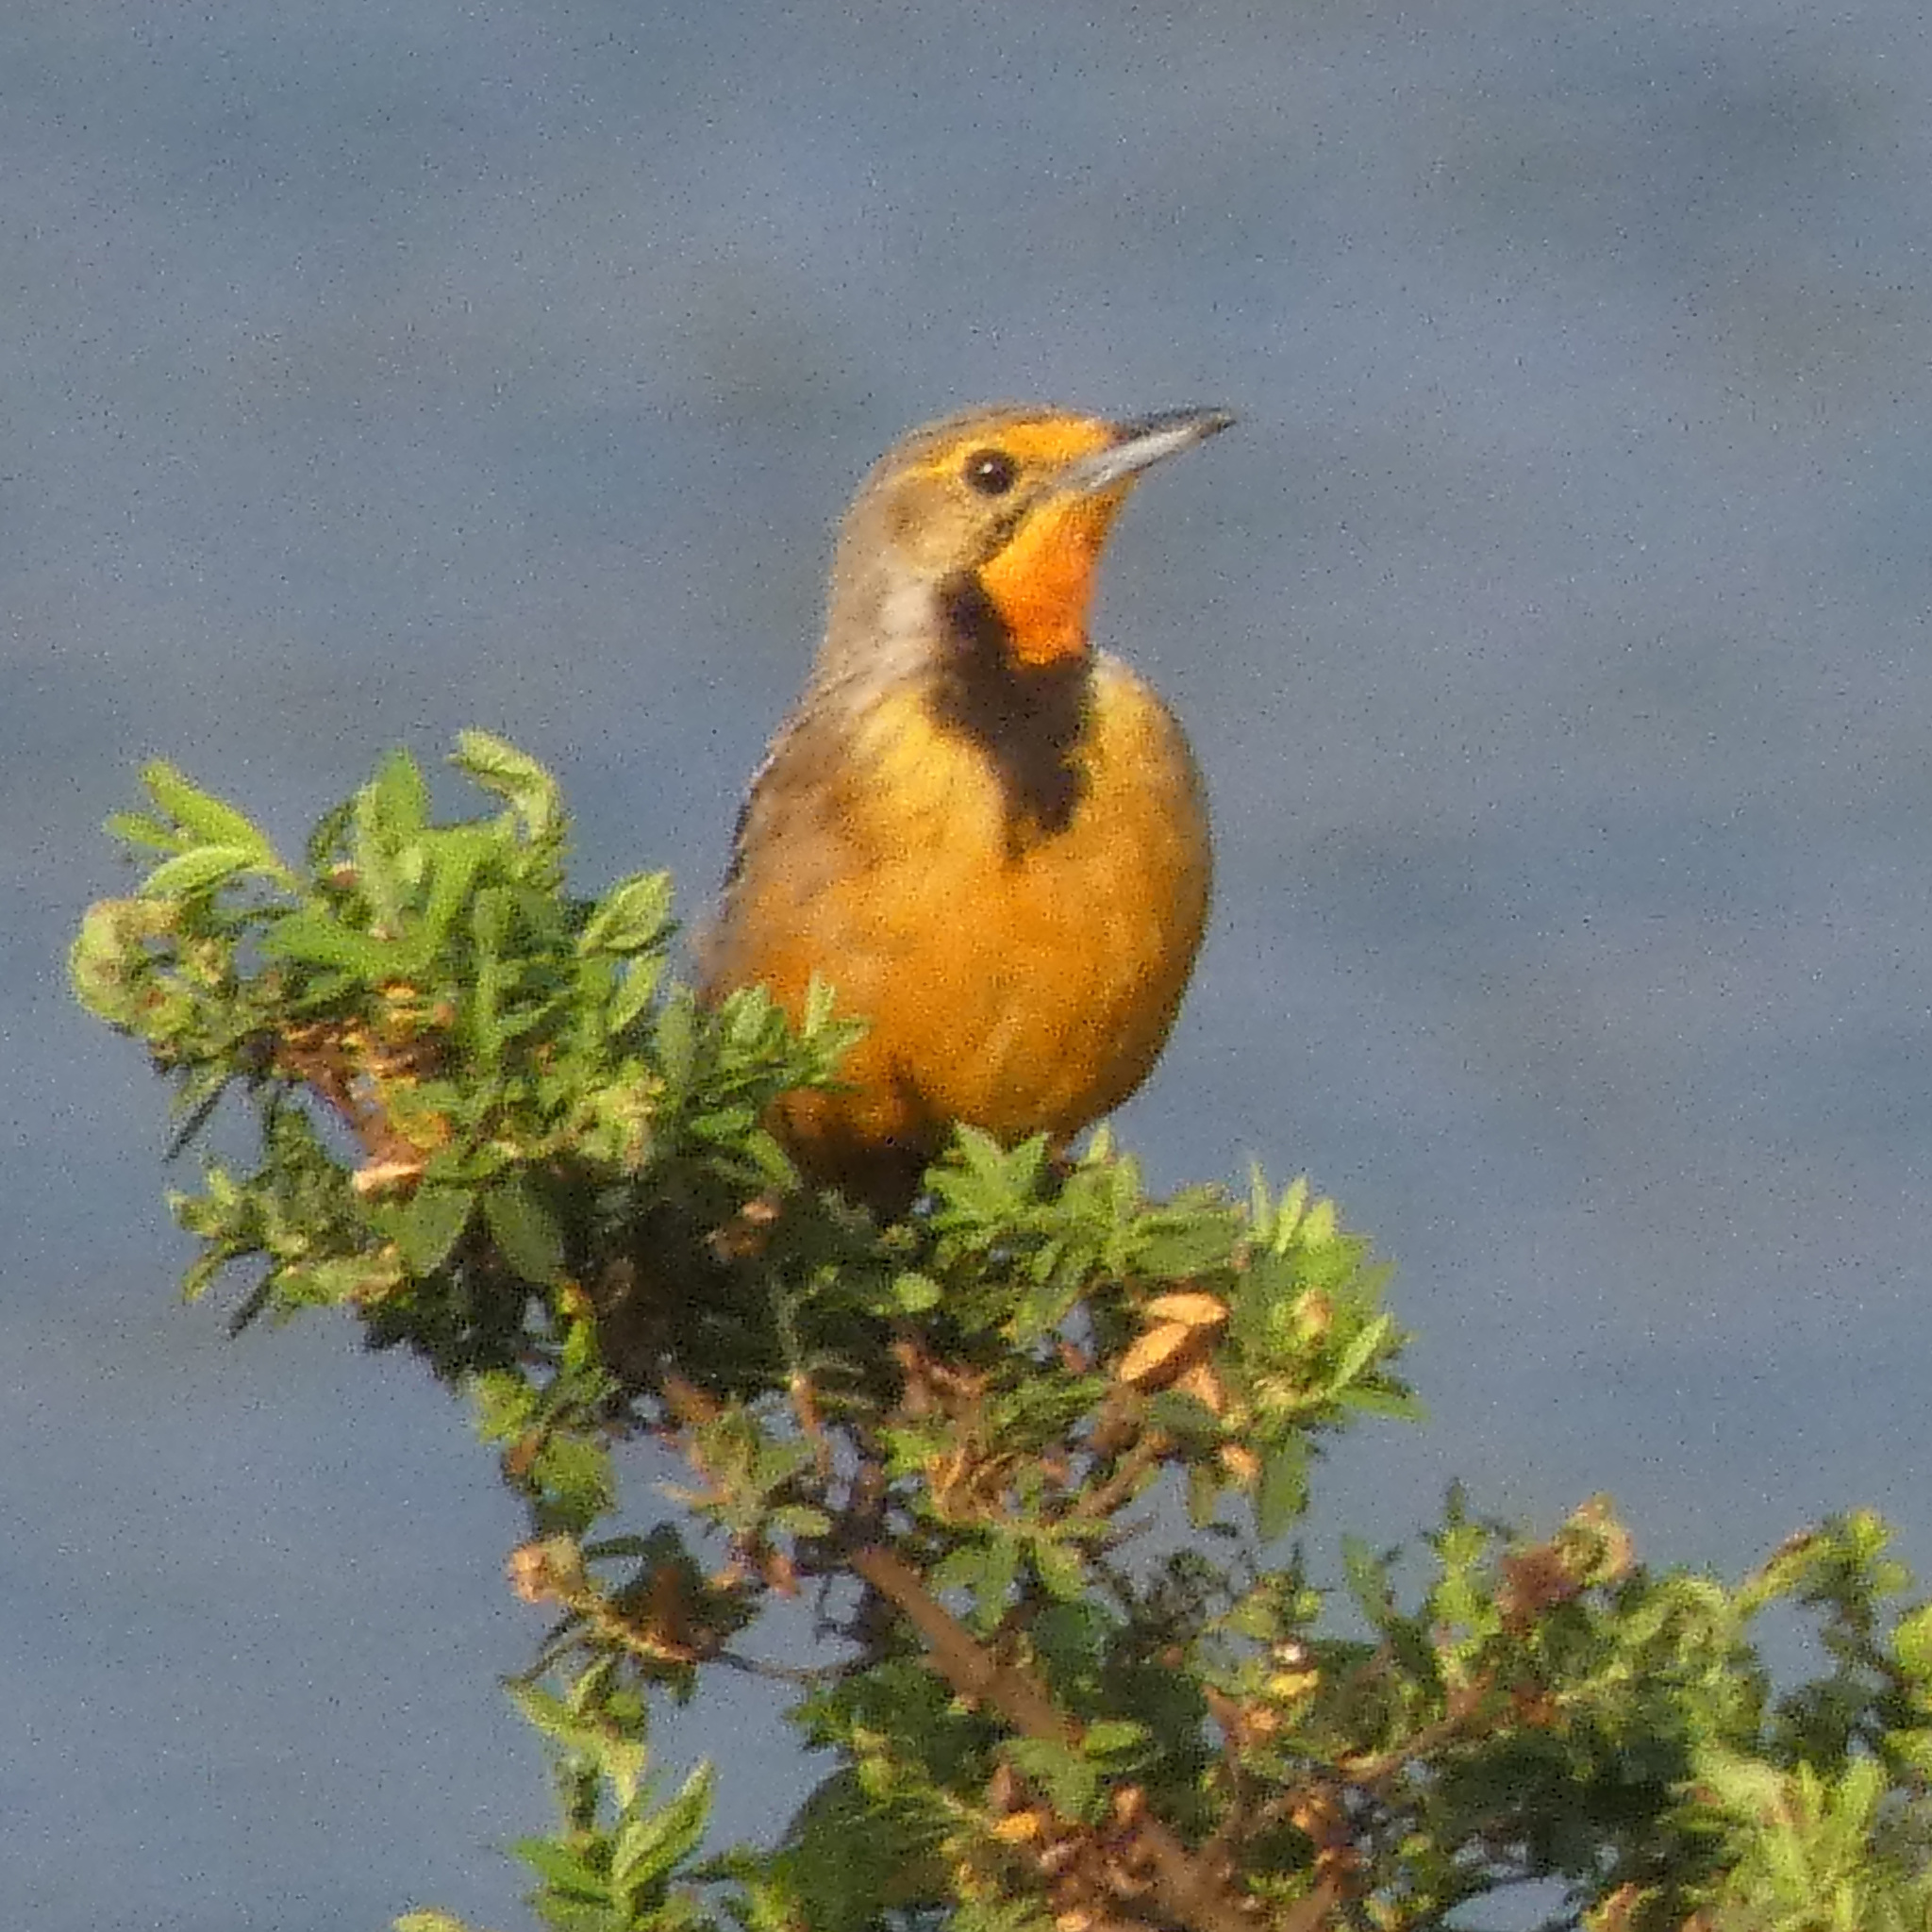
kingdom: Animalia
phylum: Chordata
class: Aves
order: Passeriformes
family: Motacillidae
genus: Macronyx
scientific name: Macronyx capensis
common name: Cape longclaw
